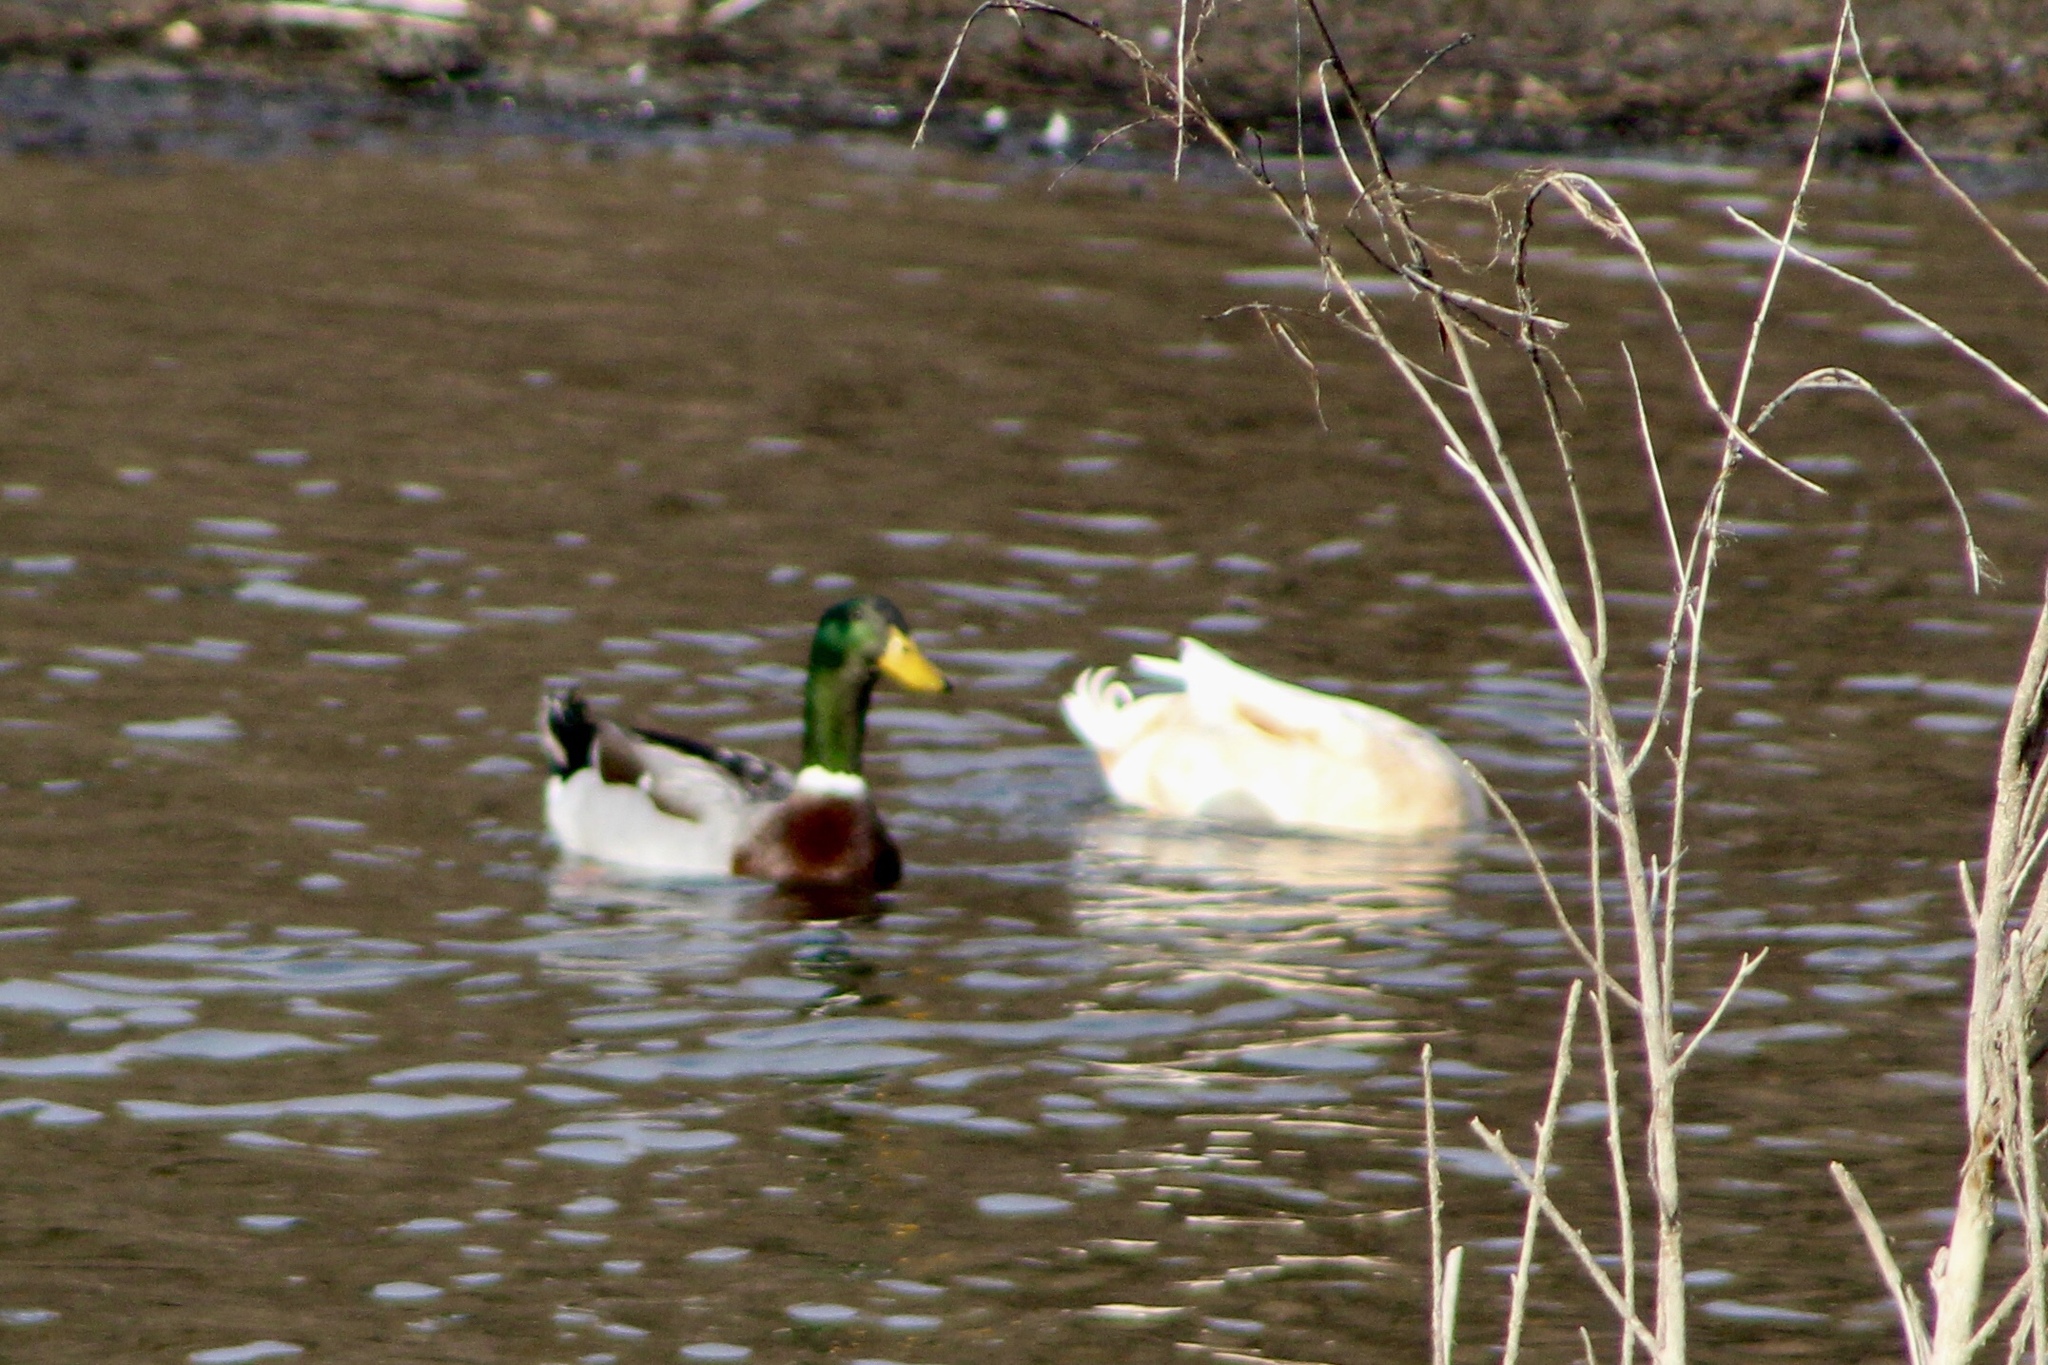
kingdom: Animalia
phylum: Chordata
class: Aves
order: Anseriformes
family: Anatidae
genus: Anas
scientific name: Anas platyrhynchos
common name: Mallard
